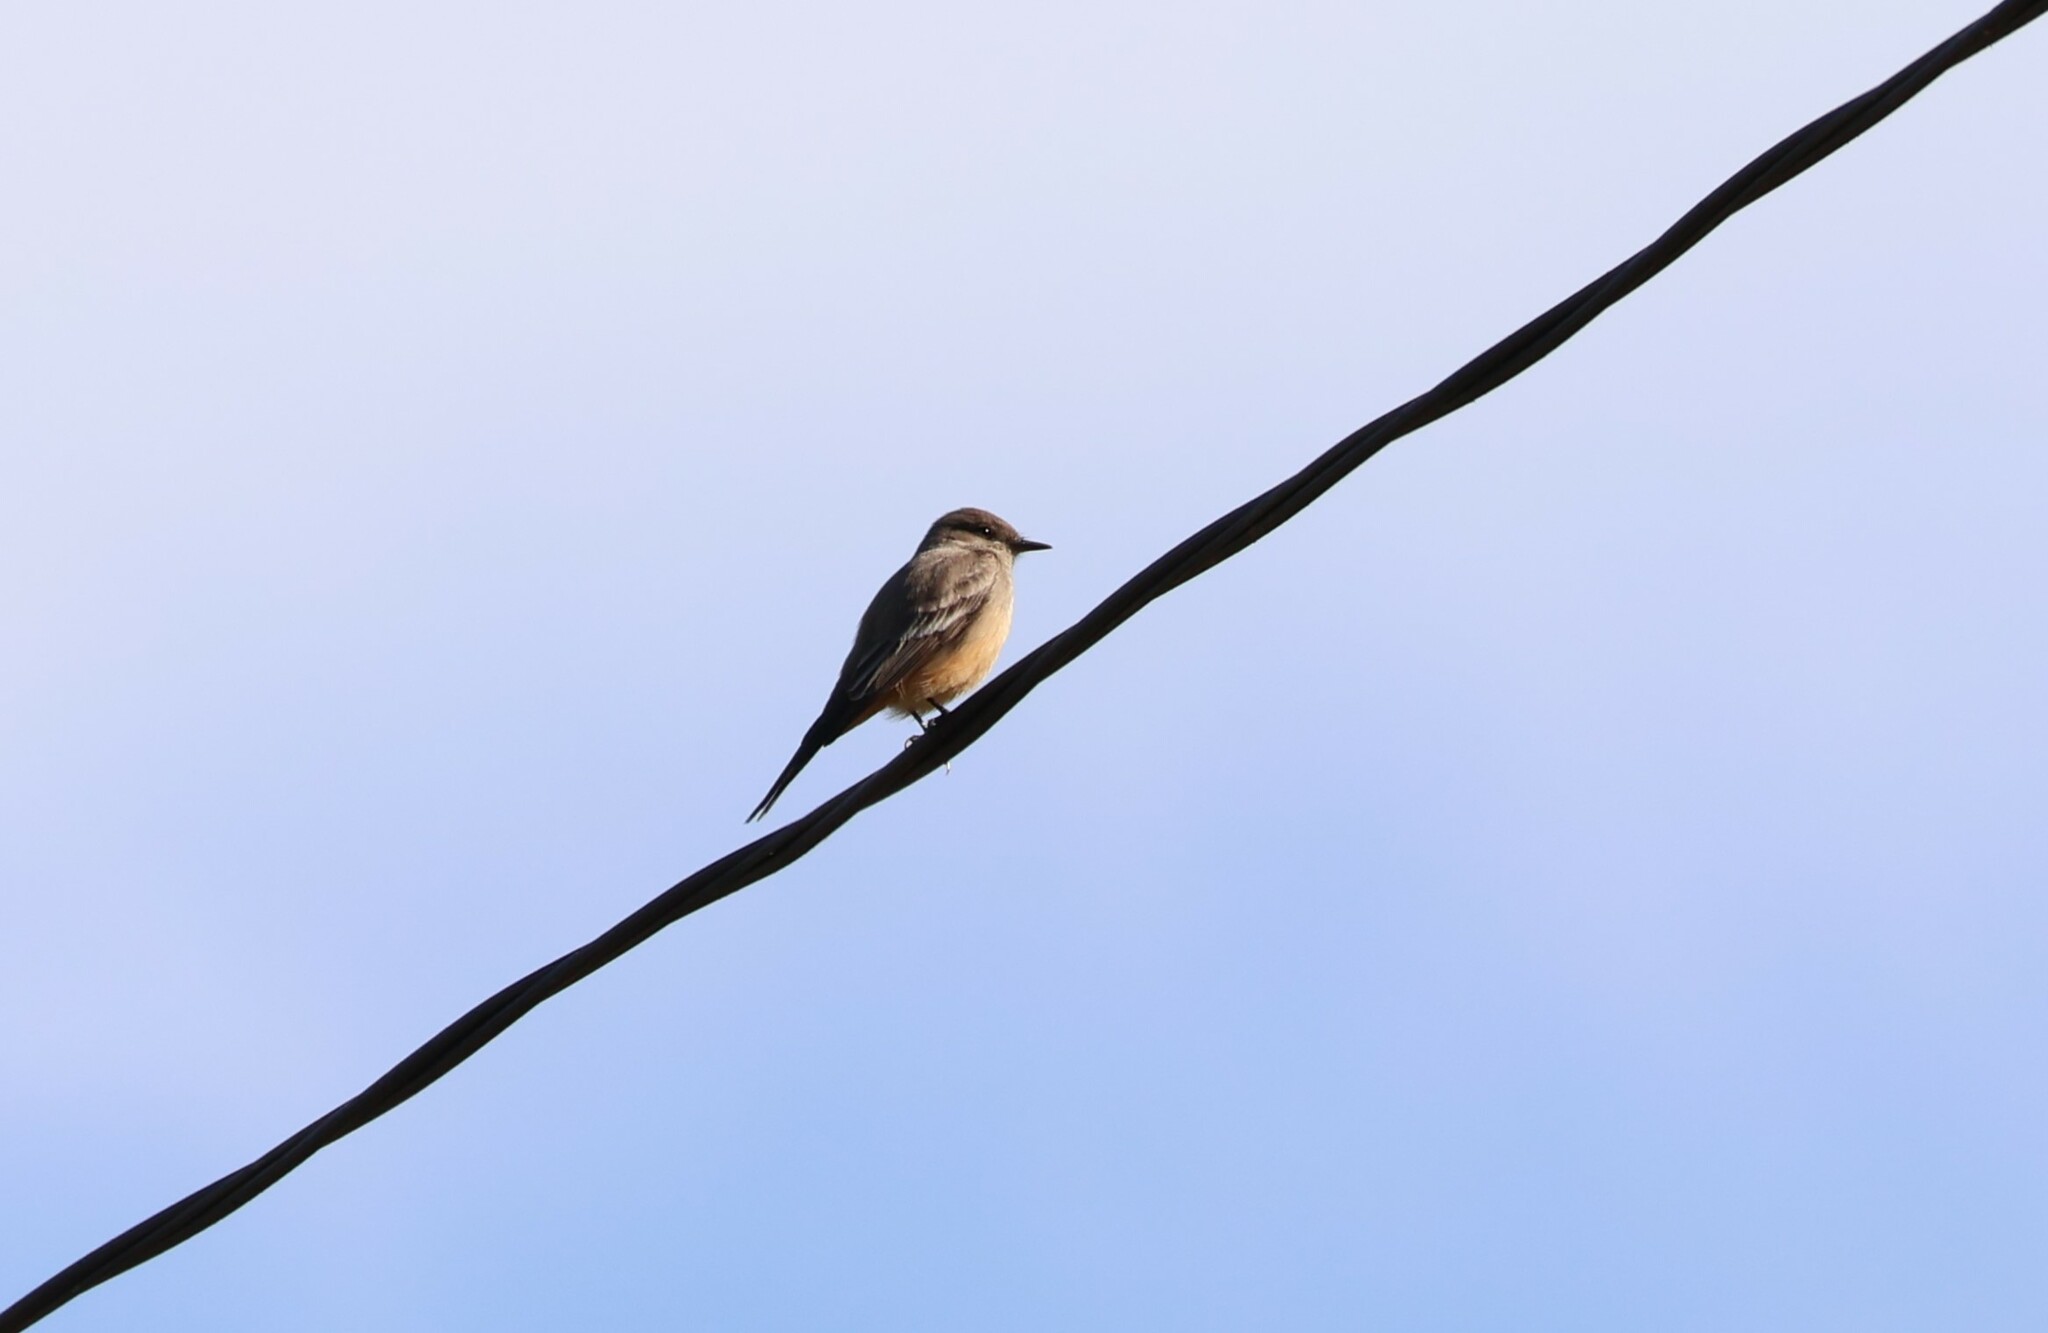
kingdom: Animalia
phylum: Chordata
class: Aves
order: Passeriformes
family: Tyrannidae
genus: Sayornis
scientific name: Sayornis saya
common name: Say's phoebe
